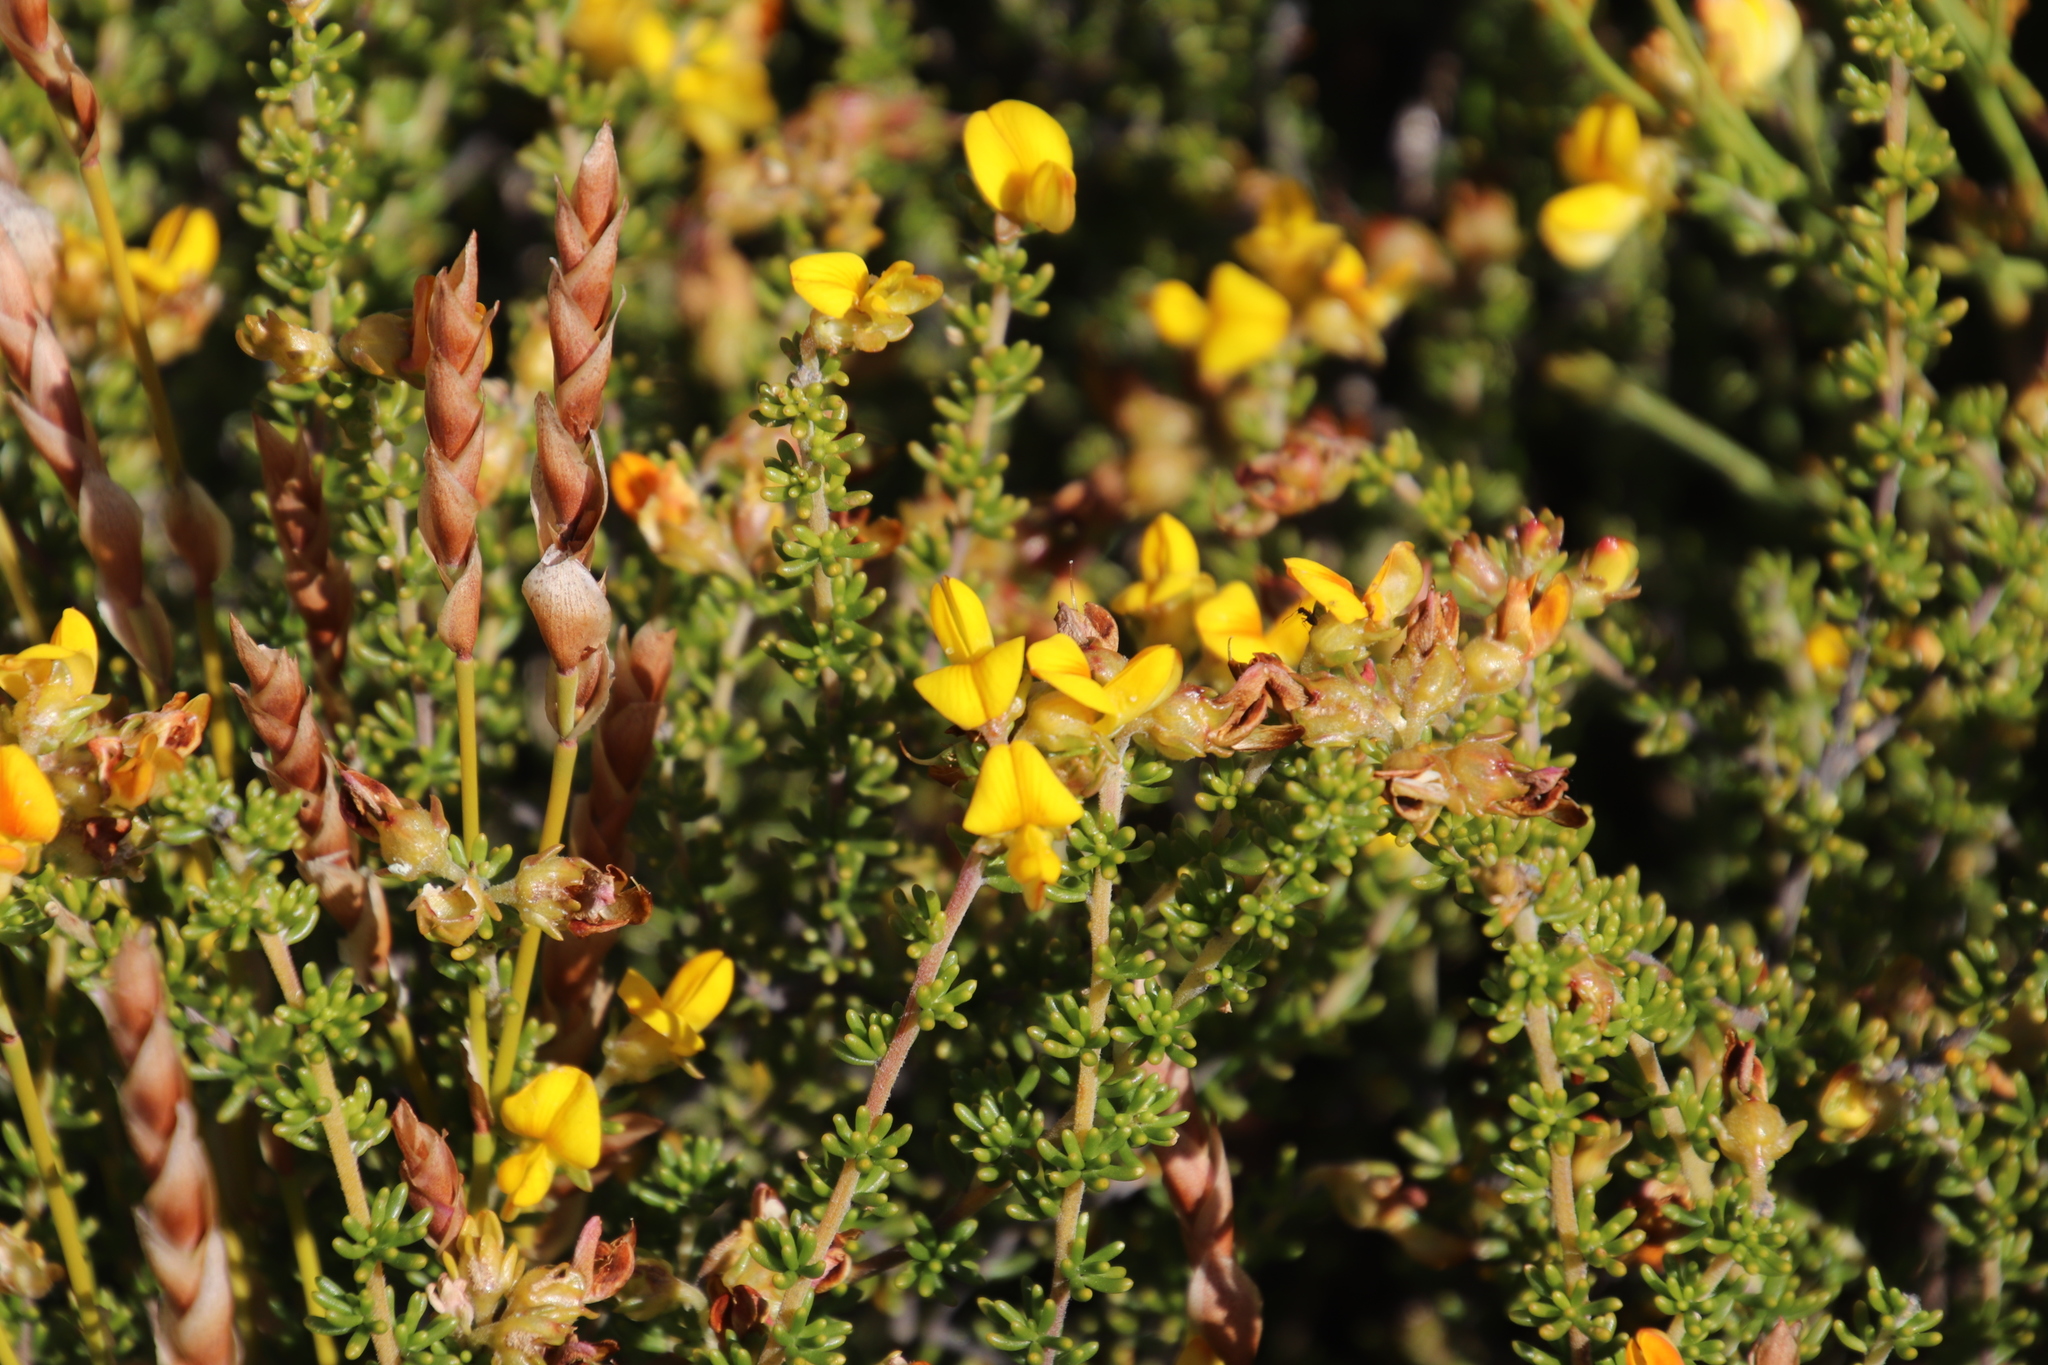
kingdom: Plantae
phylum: Tracheophyta
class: Magnoliopsida
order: Fabales
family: Fabaceae
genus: Aspalathus
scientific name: Aspalathus carnosa
